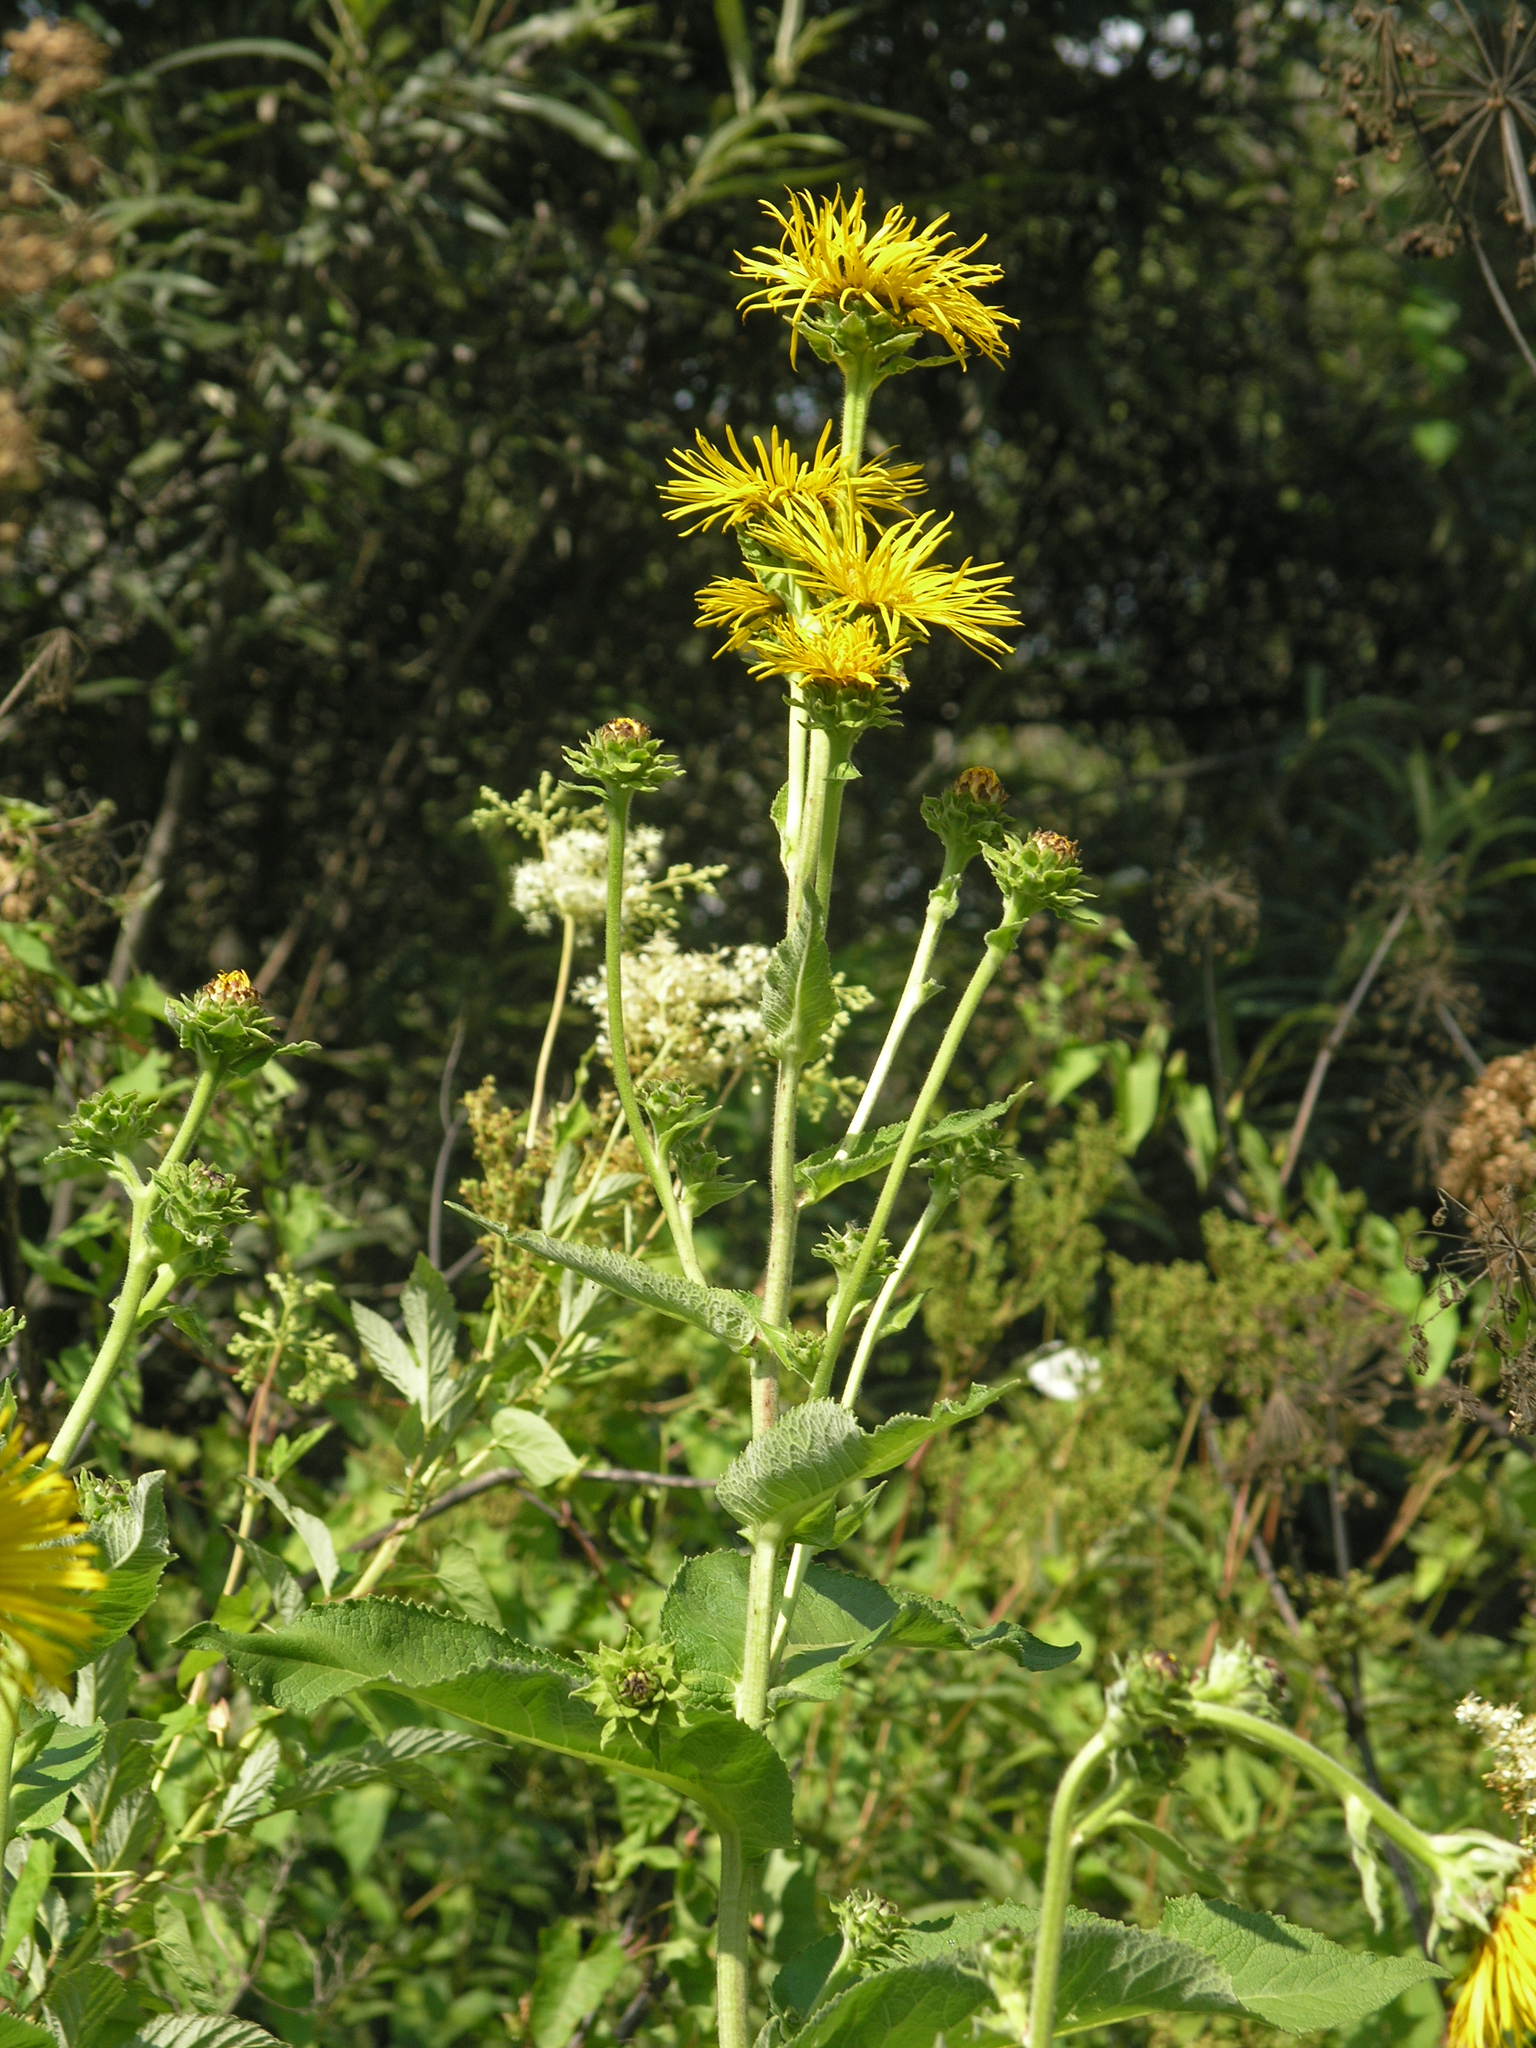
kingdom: Plantae
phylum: Tracheophyta
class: Magnoliopsida
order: Asterales
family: Asteraceae
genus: Inula
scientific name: Inula helenium
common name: Elecampane
